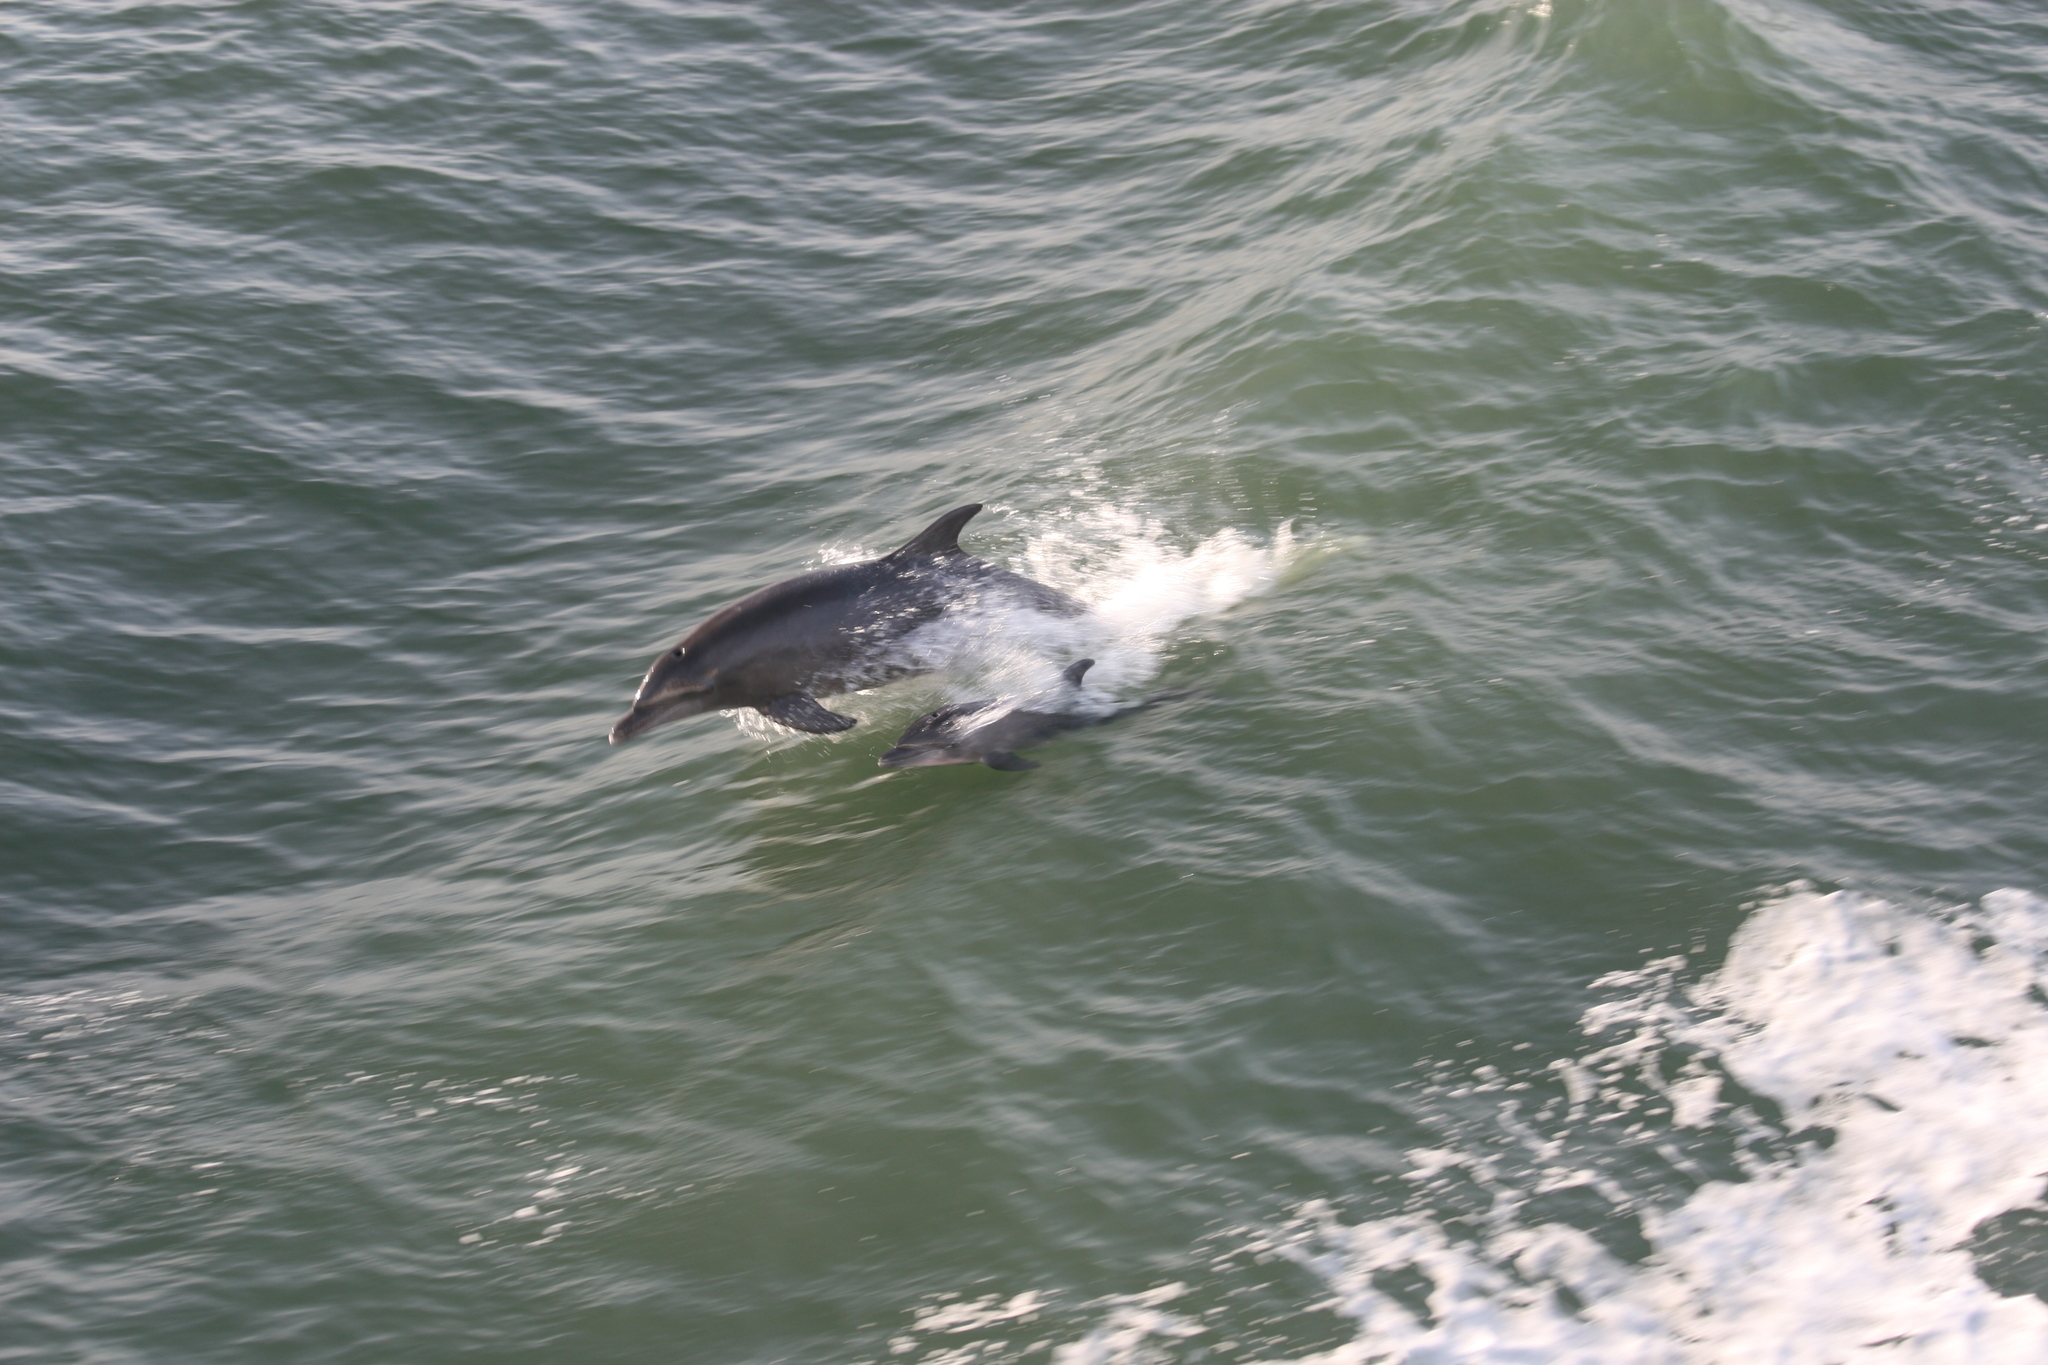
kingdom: Animalia
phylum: Chordata
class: Mammalia
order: Cetacea
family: Delphinidae
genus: Tursiops
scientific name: Tursiops truncatus
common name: Bottlenose dolphin
